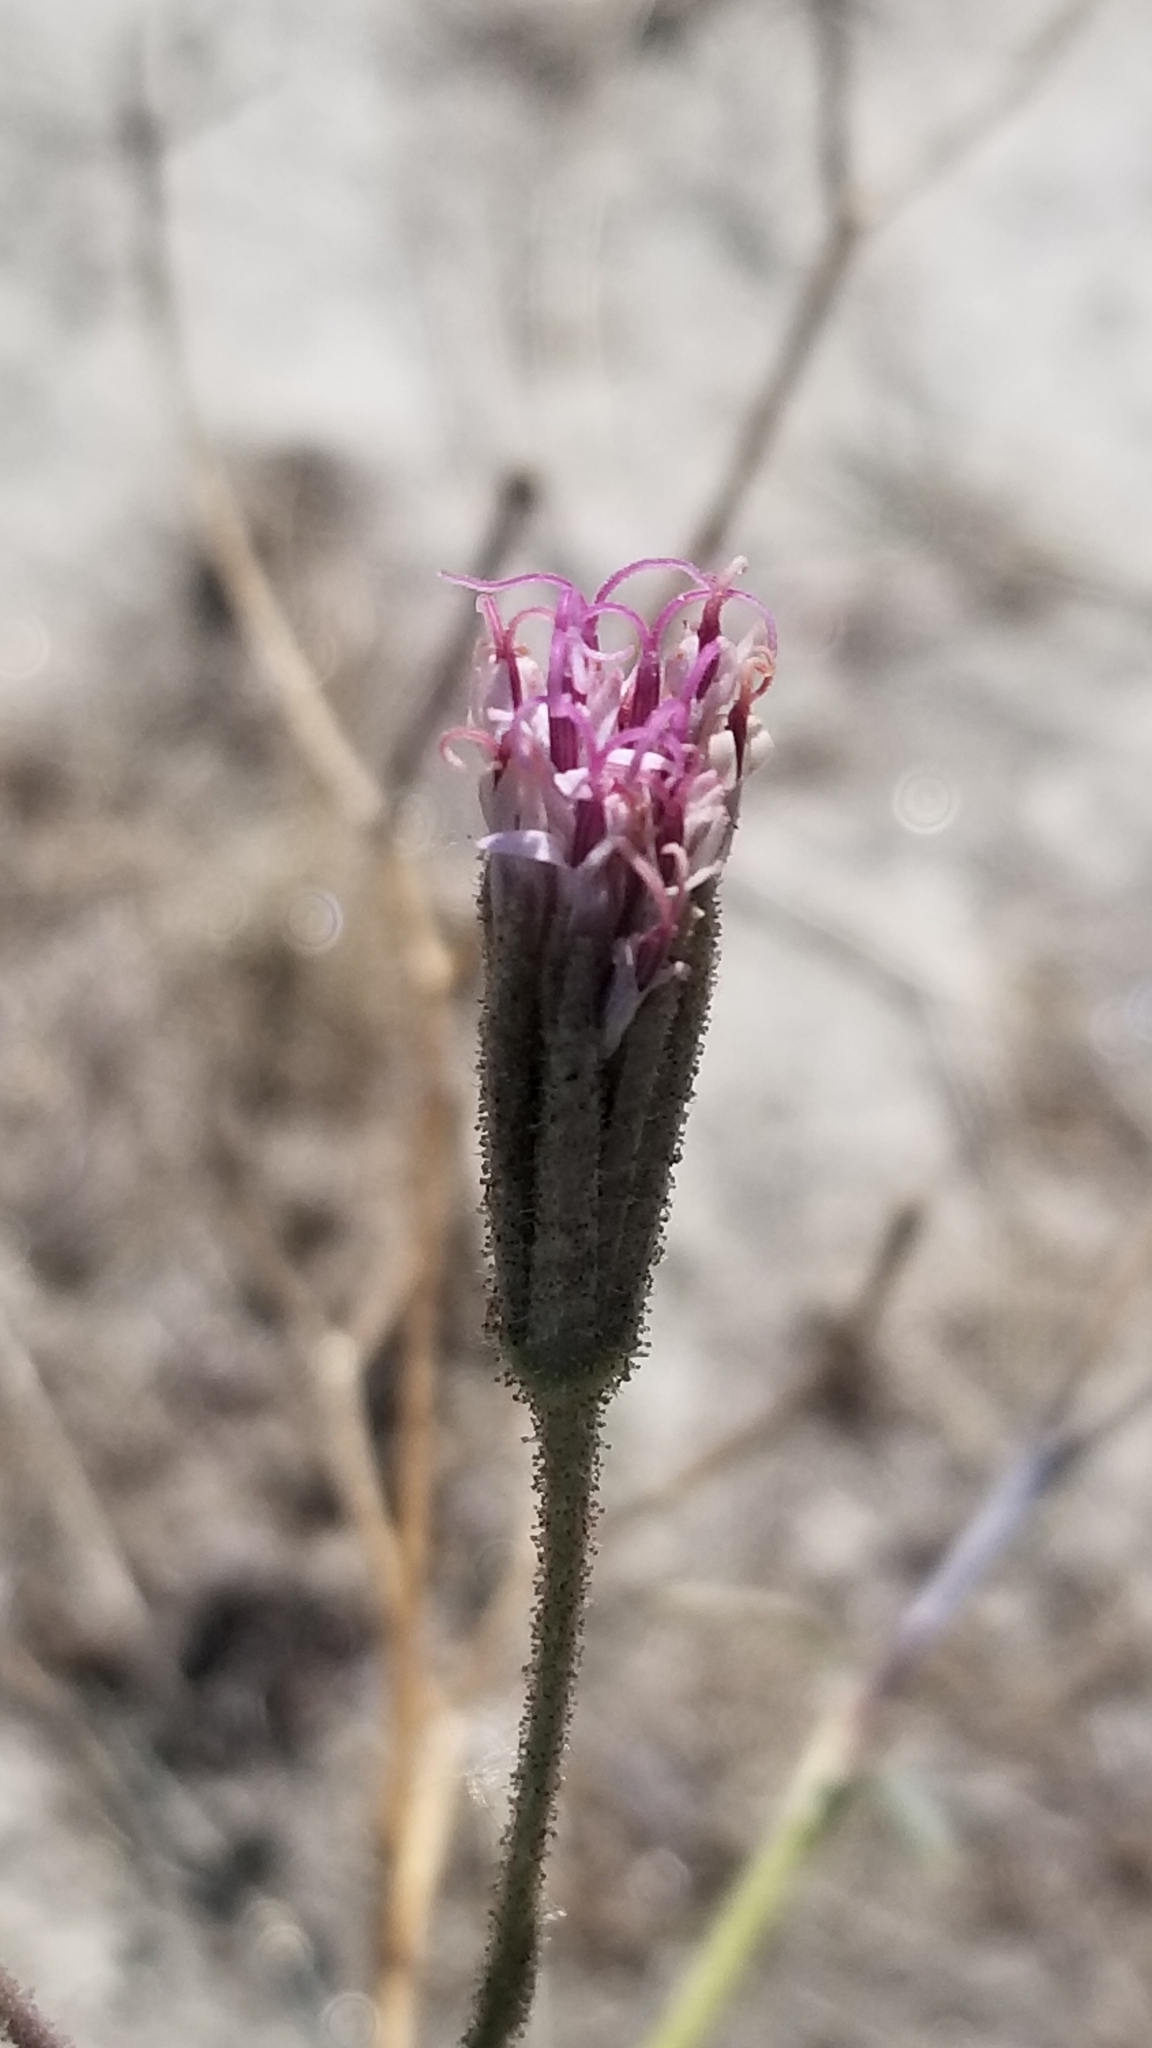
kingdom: Plantae
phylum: Tracheophyta
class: Magnoliopsida
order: Asterales
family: Asteraceae
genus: Palafoxia
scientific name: Palafoxia arida
